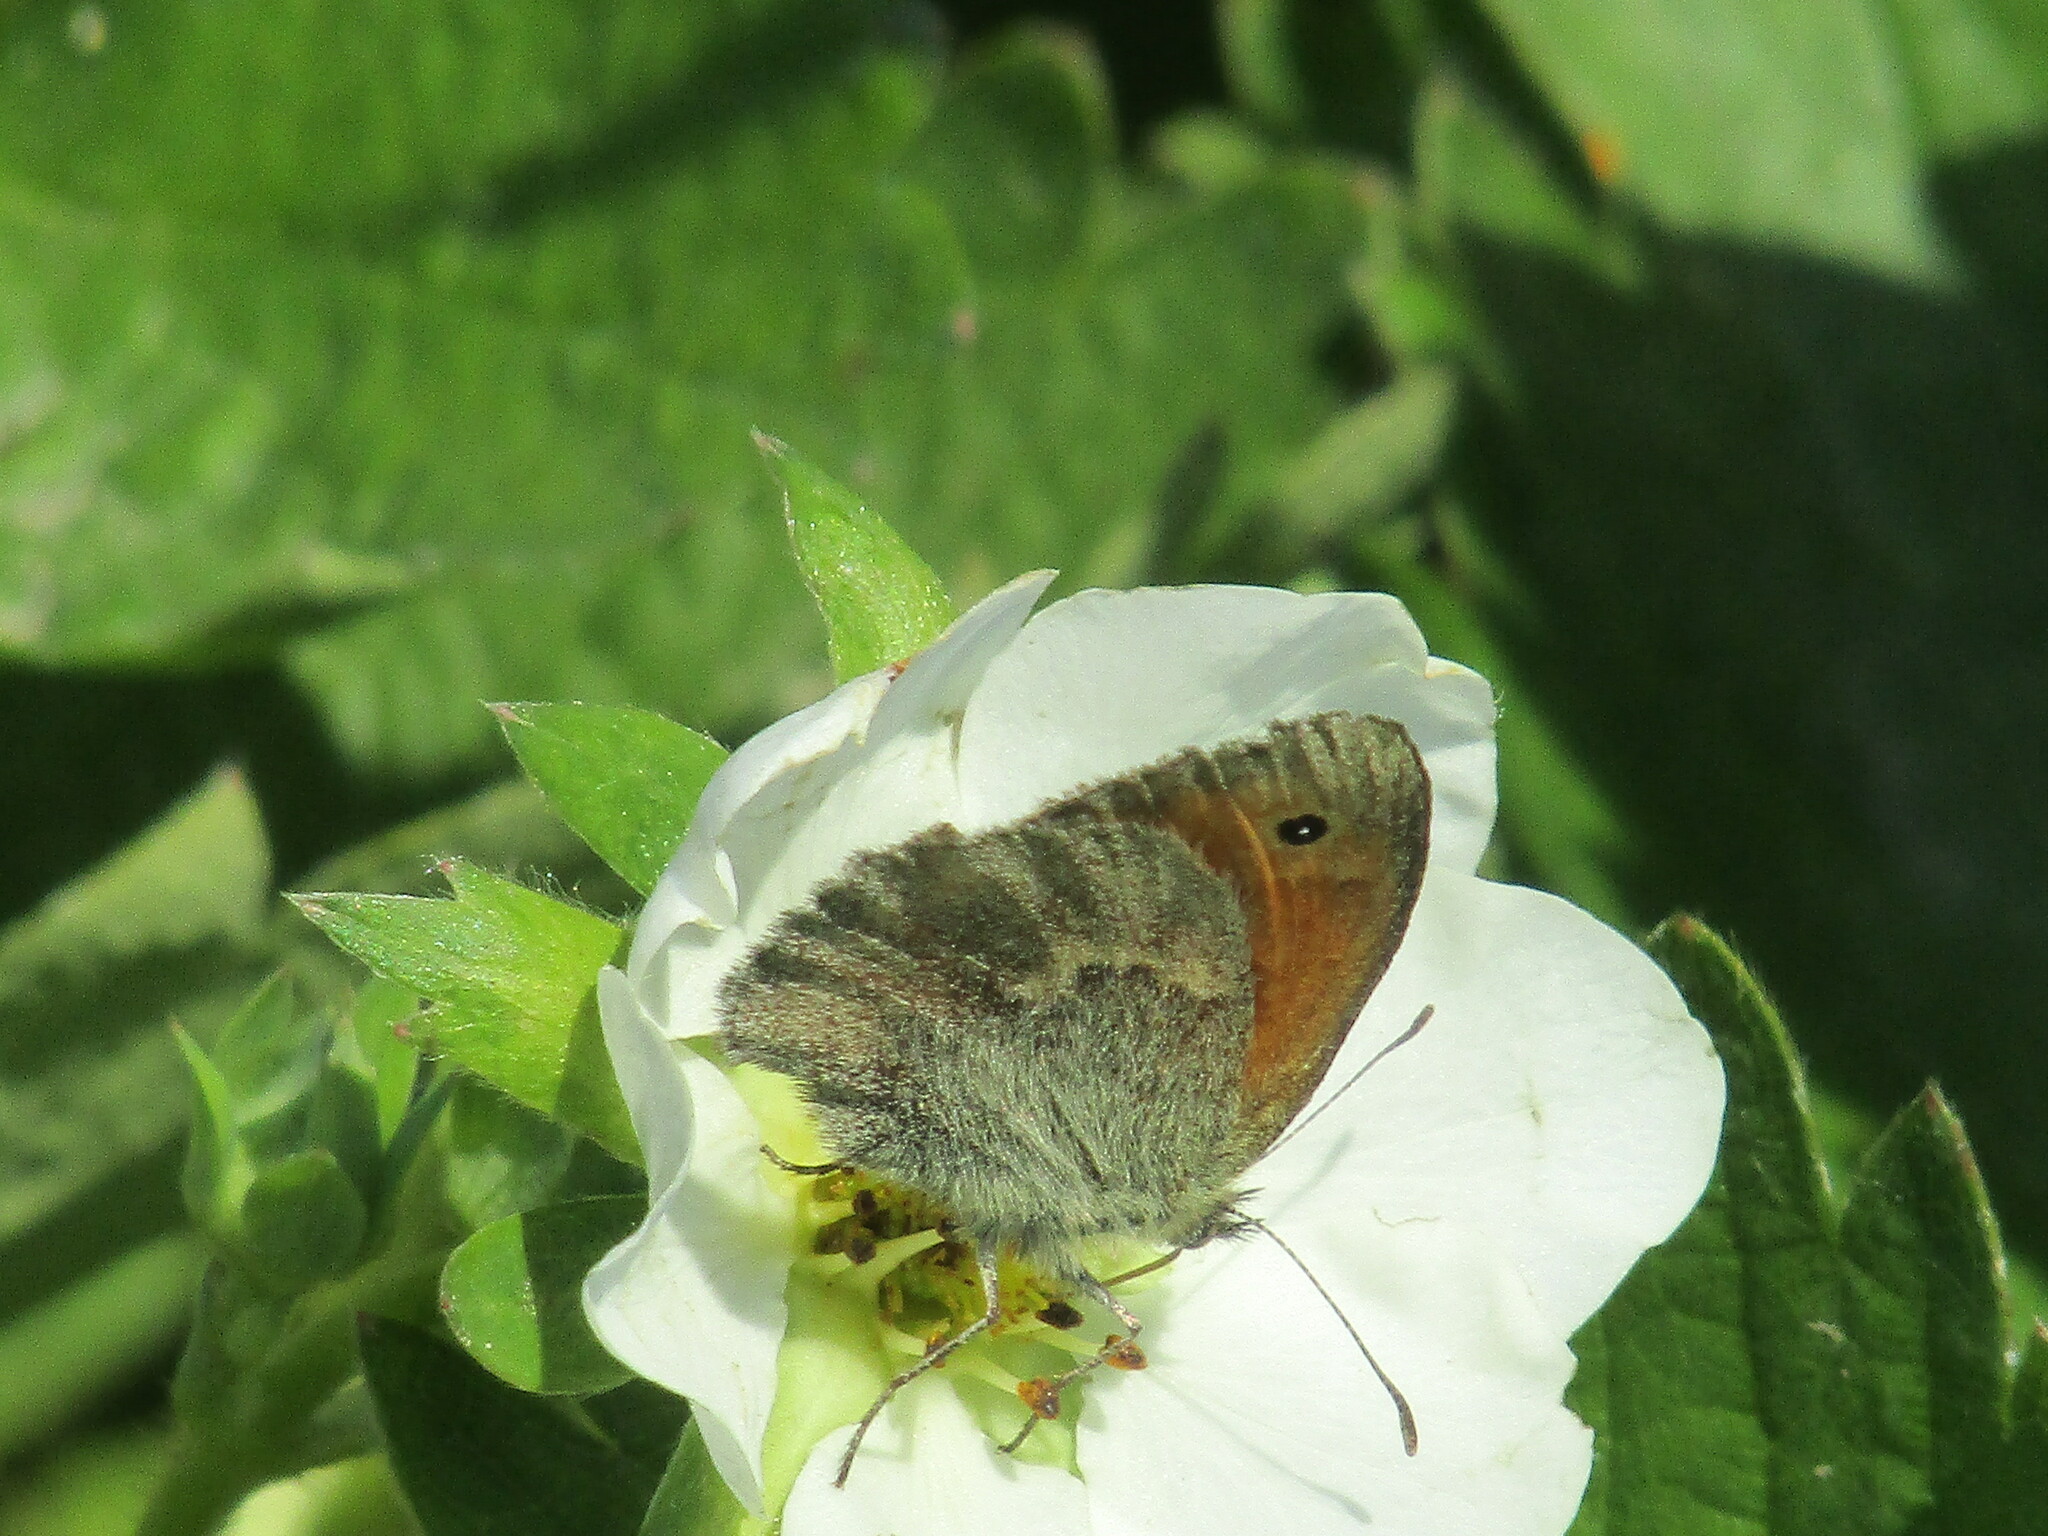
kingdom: Animalia
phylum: Arthropoda
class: Insecta
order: Lepidoptera
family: Nymphalidae
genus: Coenonympha
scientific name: Coenonympha pamphilus
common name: Small heath
